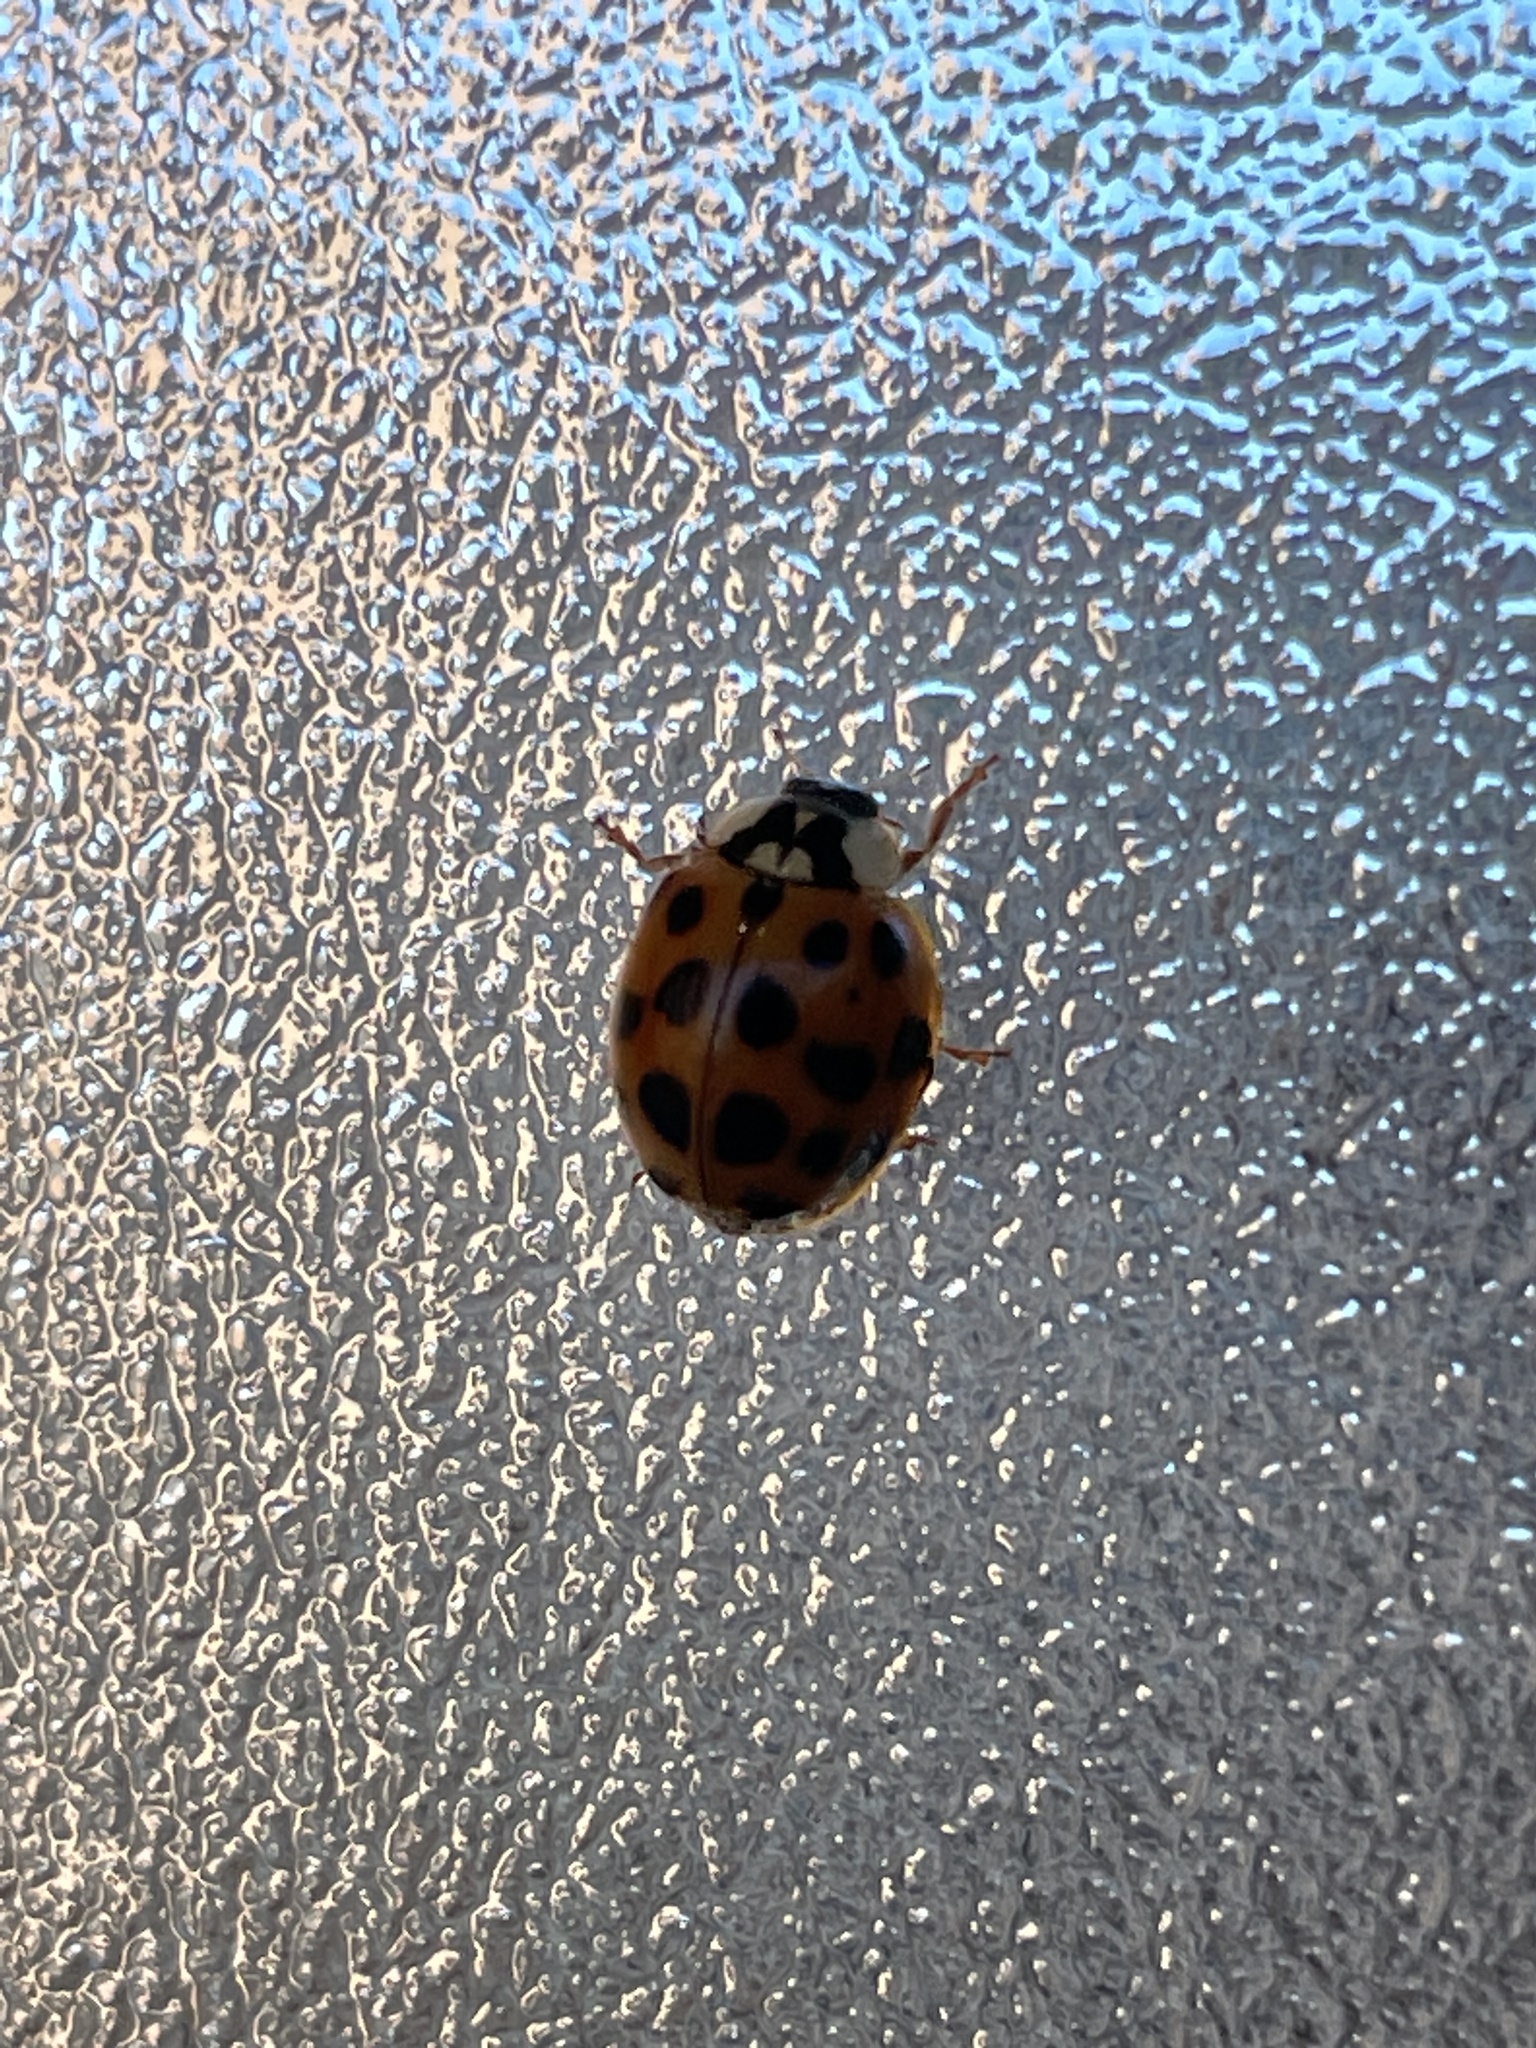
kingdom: Animalia
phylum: Arthropoda
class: Insecta
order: Coleoptera
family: Coccinellidae
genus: Harmonia
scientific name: Harmonia axyridis
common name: Harlequin ladybird
